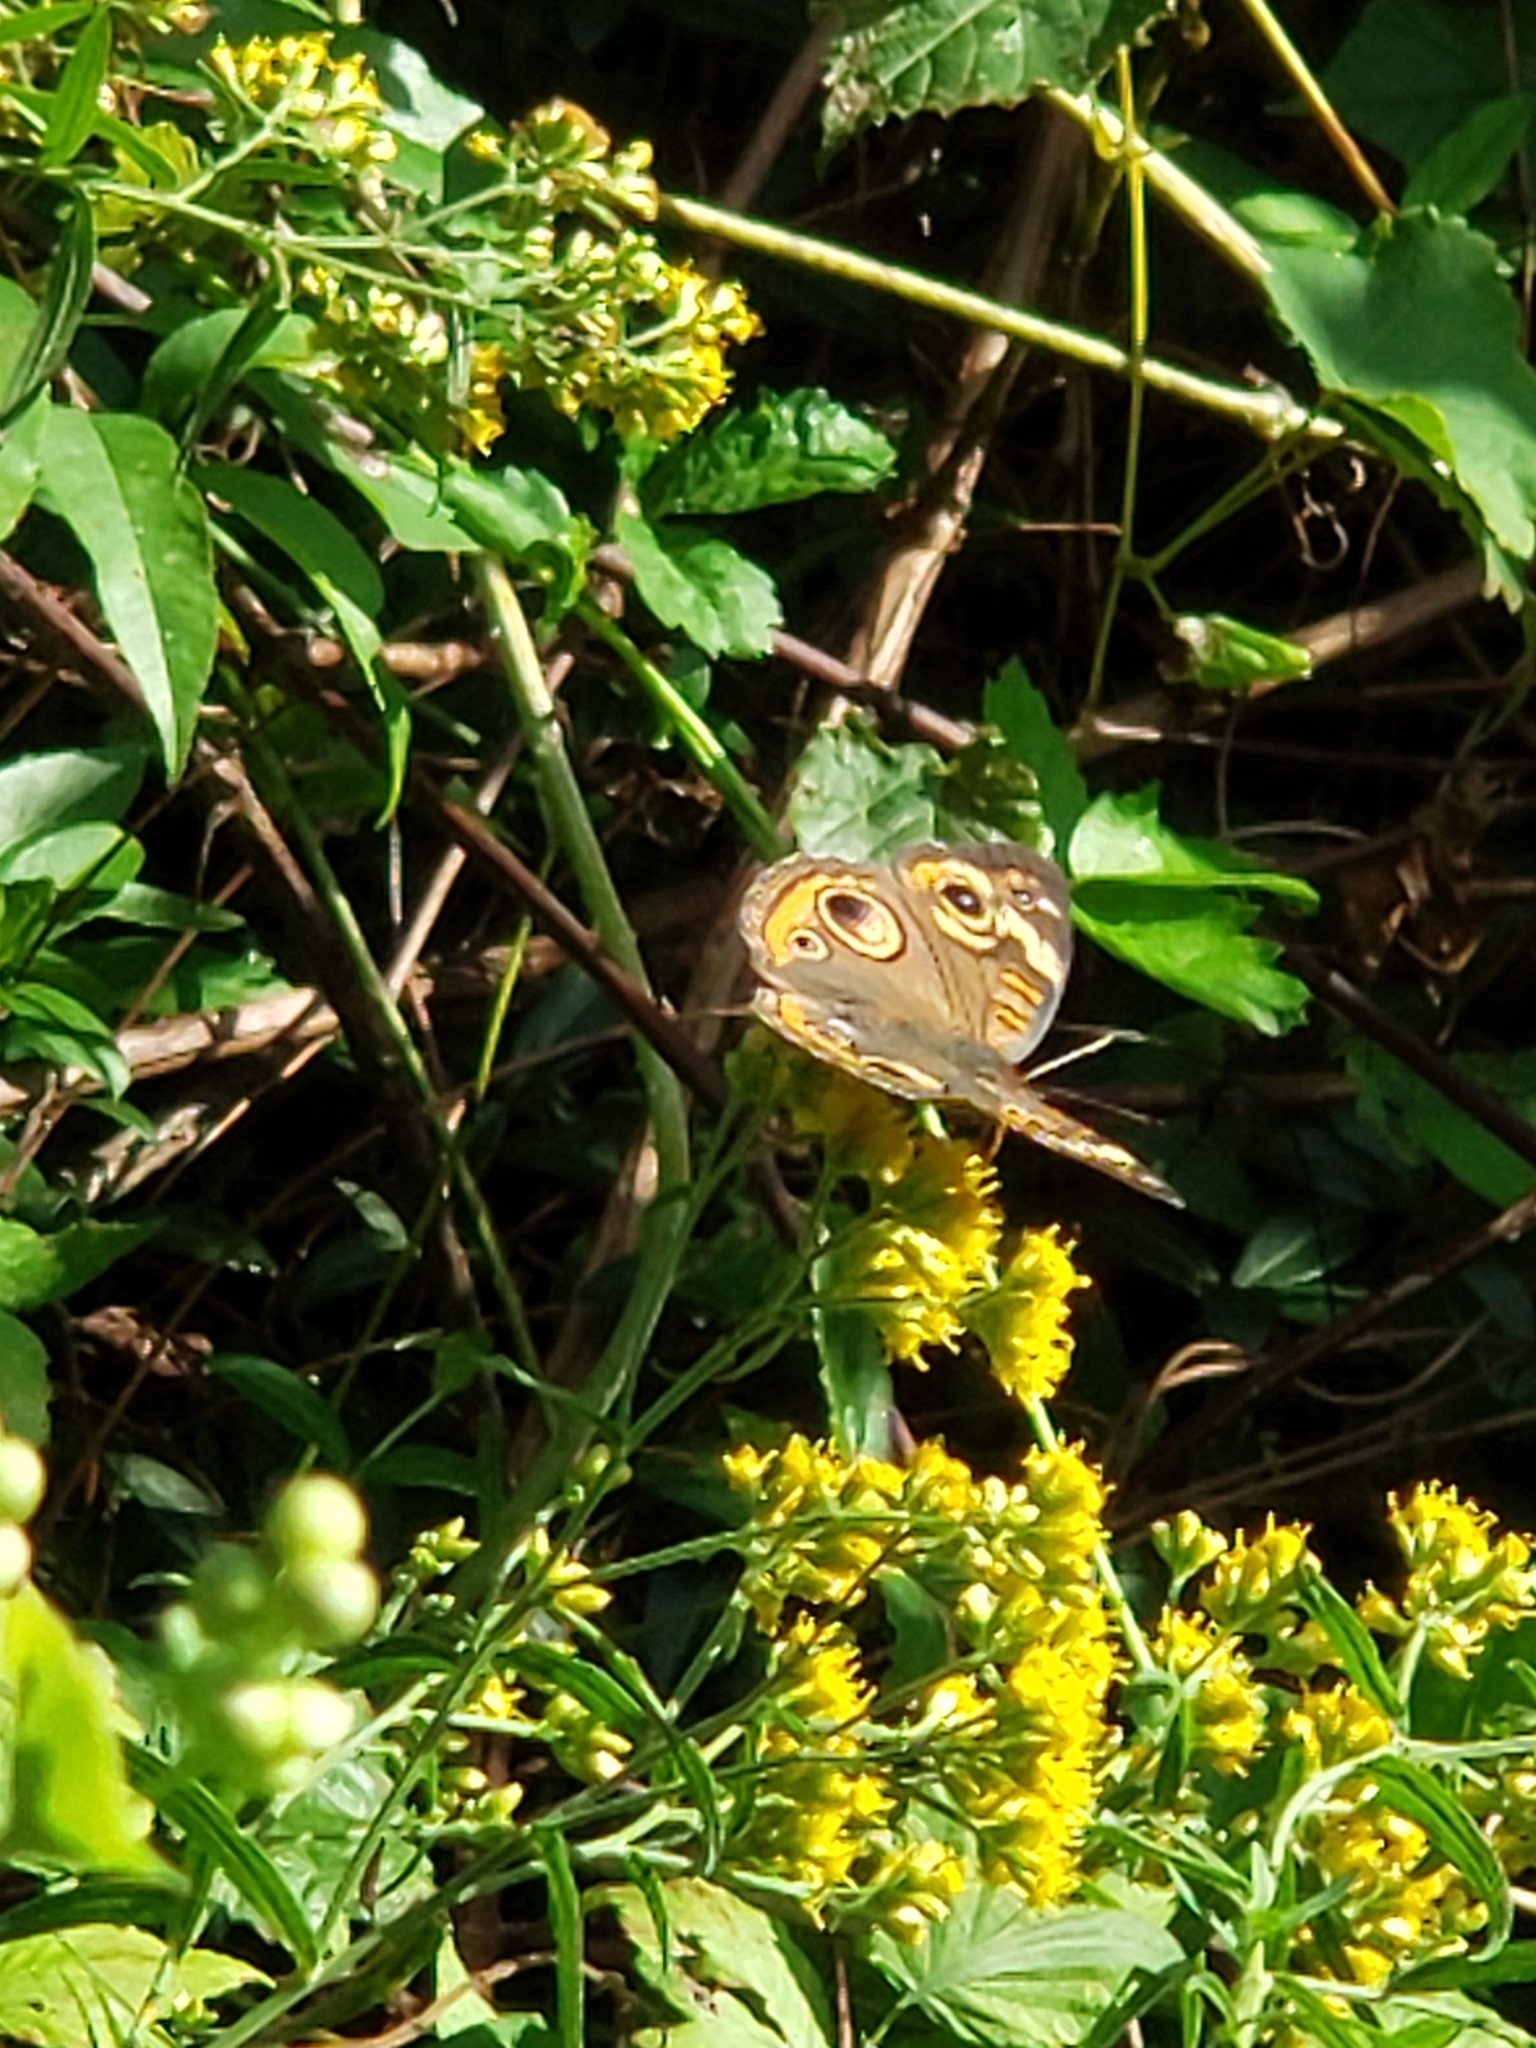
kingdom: Animalia
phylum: Arthropoda
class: Insecta
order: Lepidoptera
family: Nymphalidae
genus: Junonia
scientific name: Junonia coenia
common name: Common buckeye
